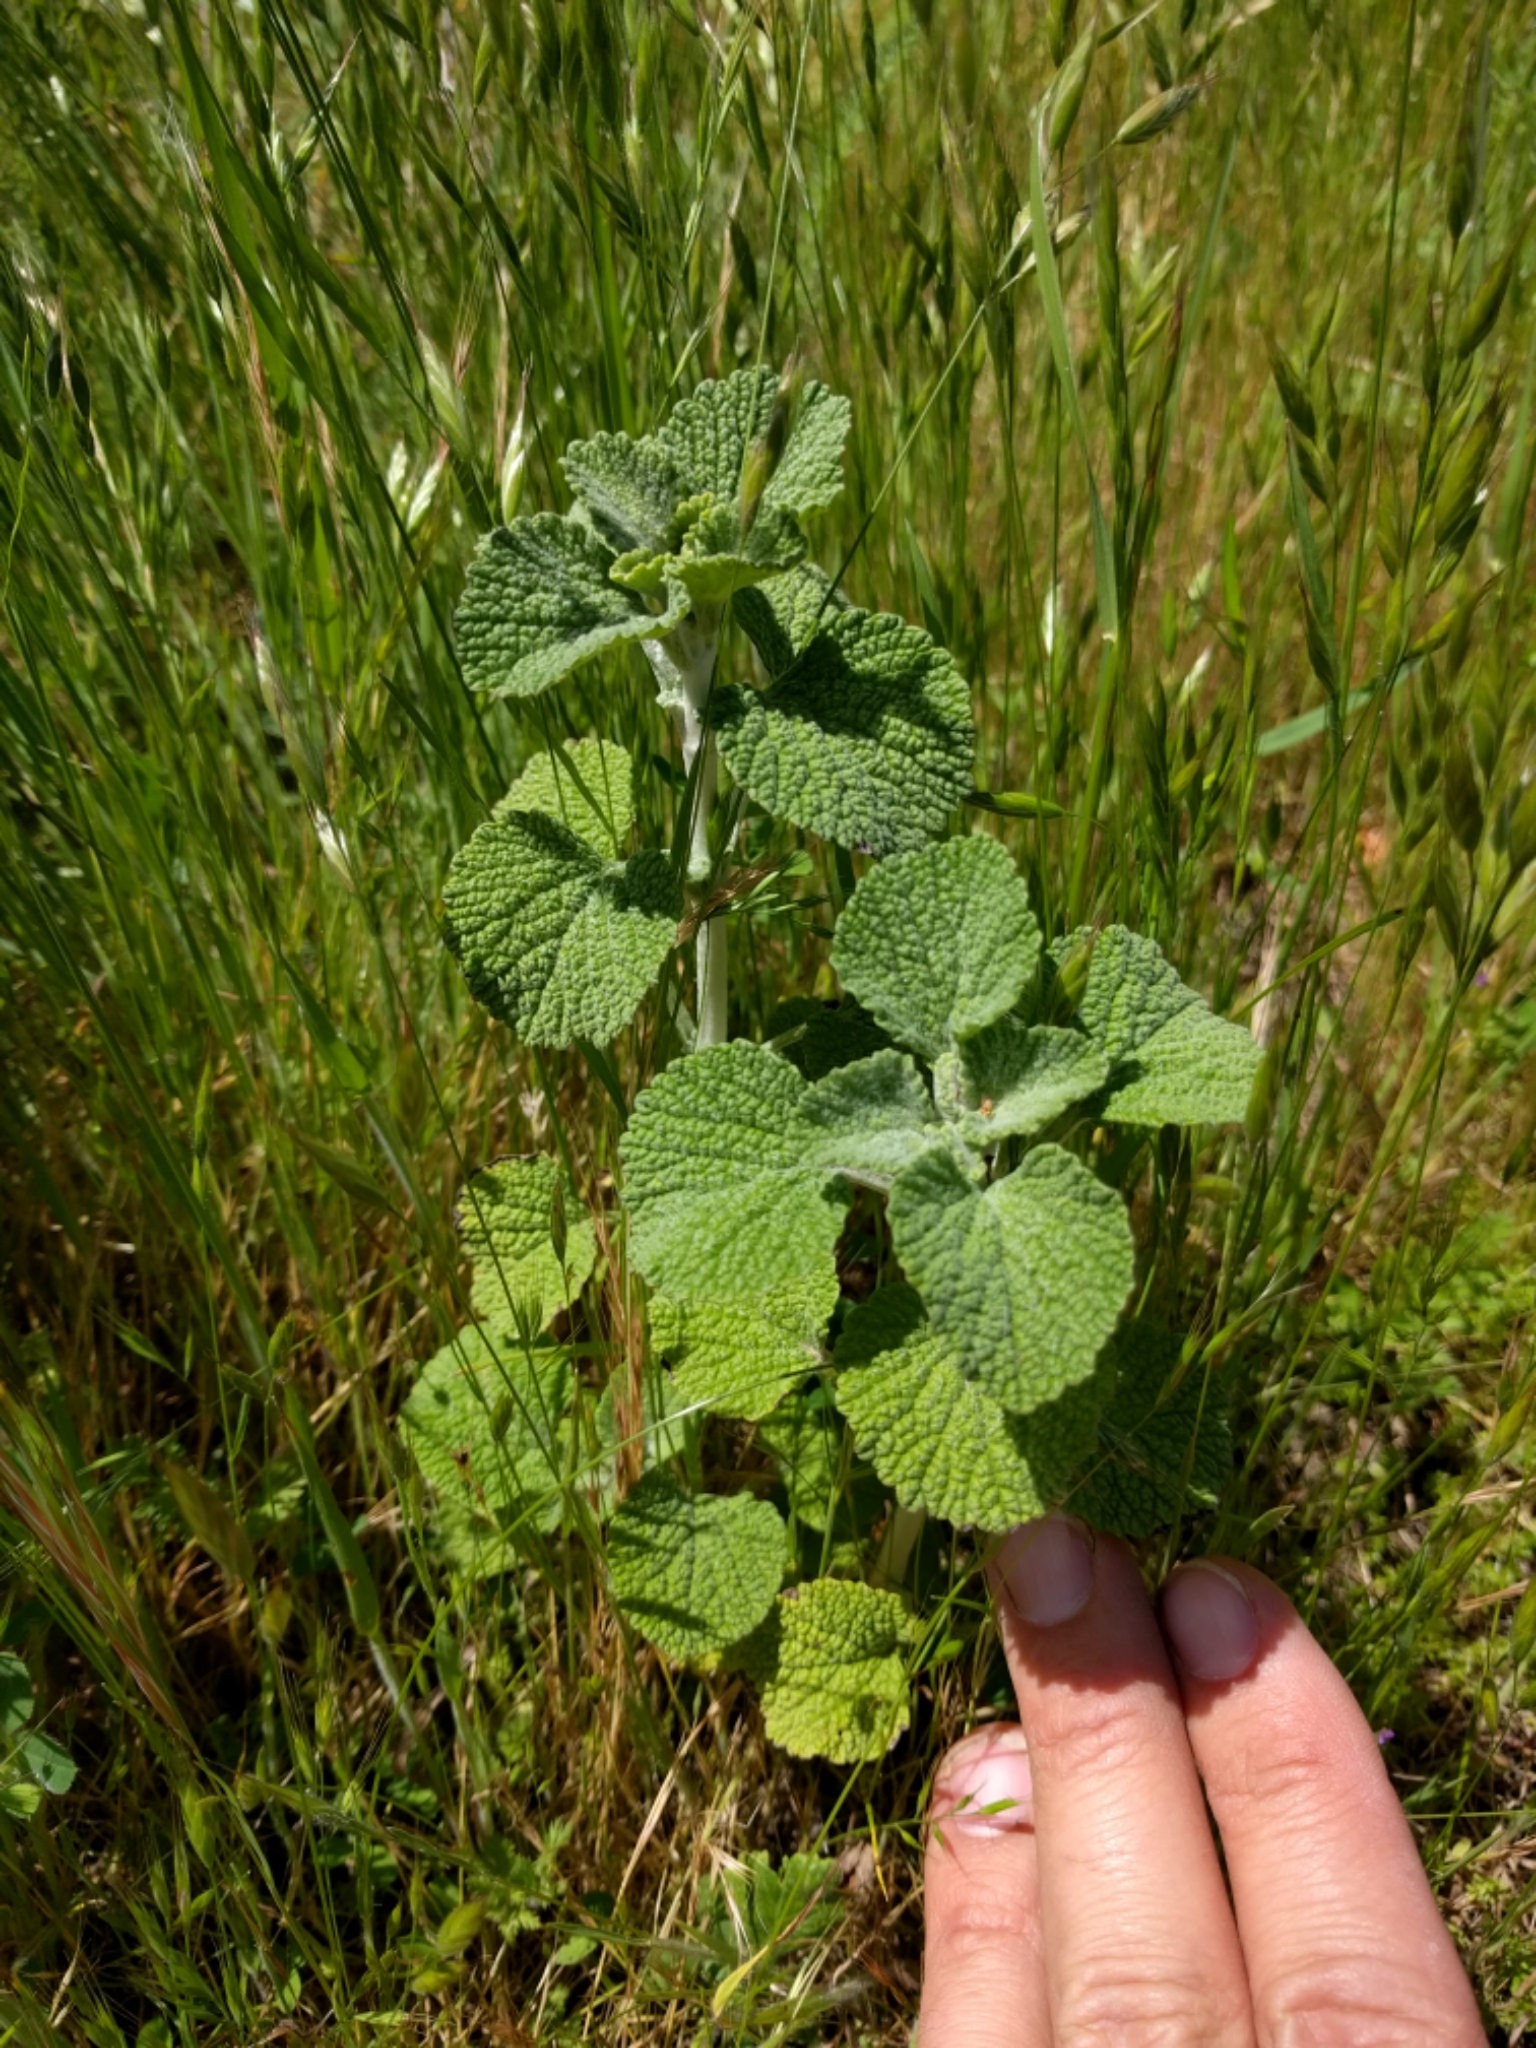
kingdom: Plantae
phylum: Tracheophyta
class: Magnoliopsida
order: Lamiales
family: Lamiaceae
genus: Marrubium
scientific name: Marrubium vulgare
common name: Horehound
